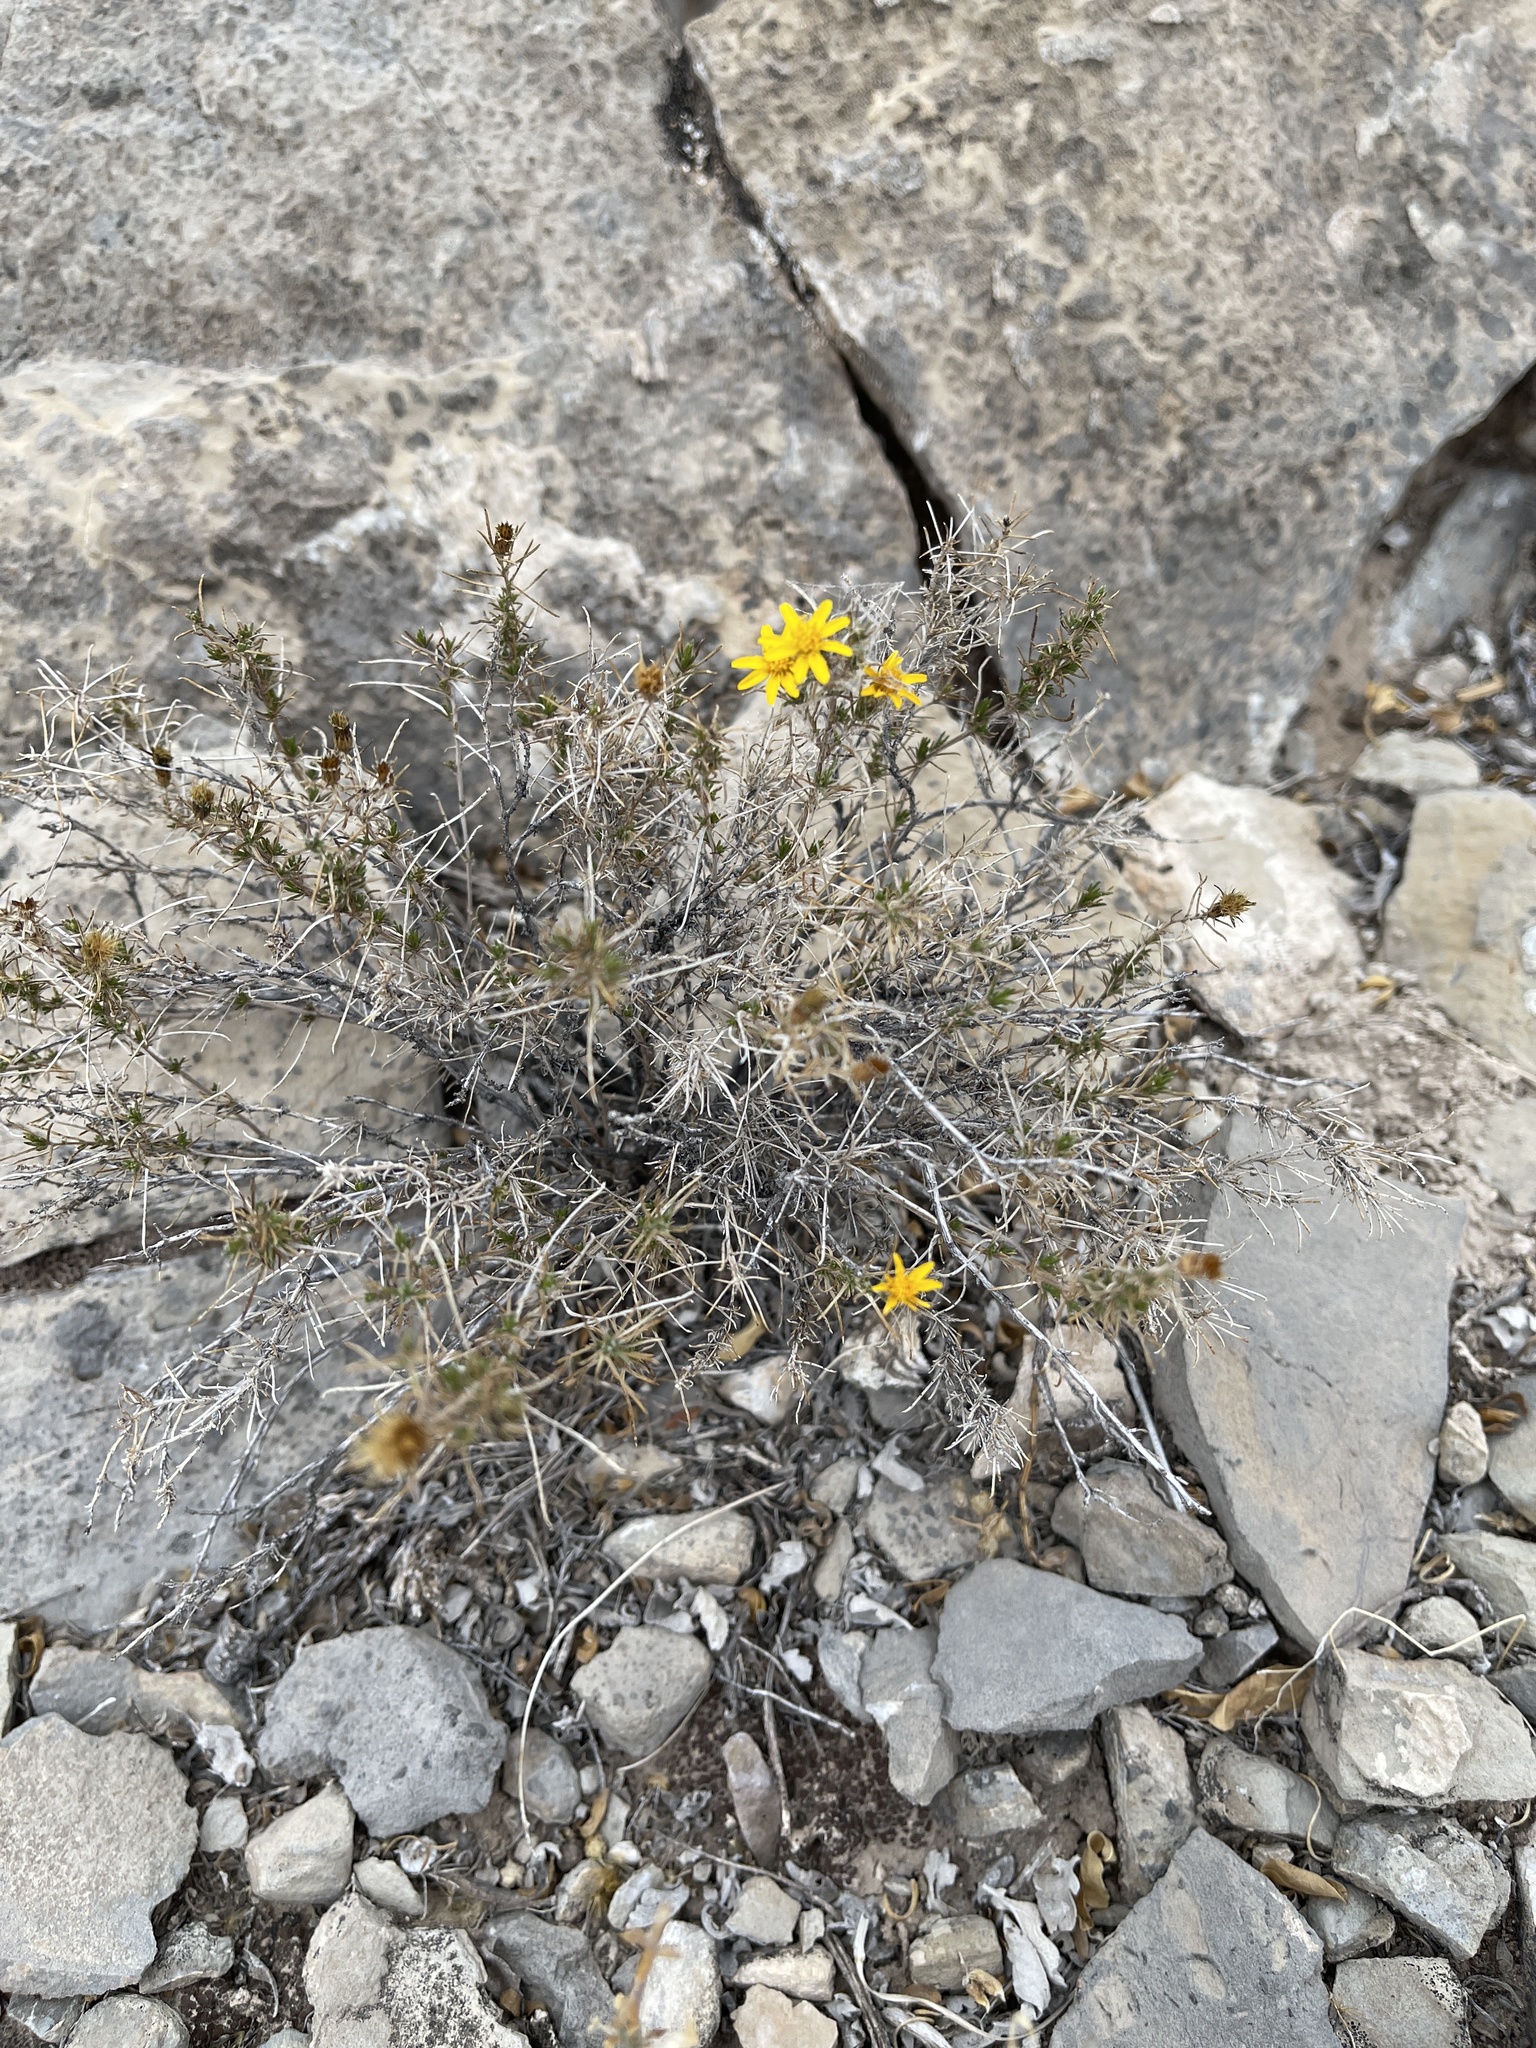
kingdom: Plantae
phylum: Tracheophyta
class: Magnoliopsida
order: Asterales
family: Asteraceae
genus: Thymophylla
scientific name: Thymophylla acerosa
